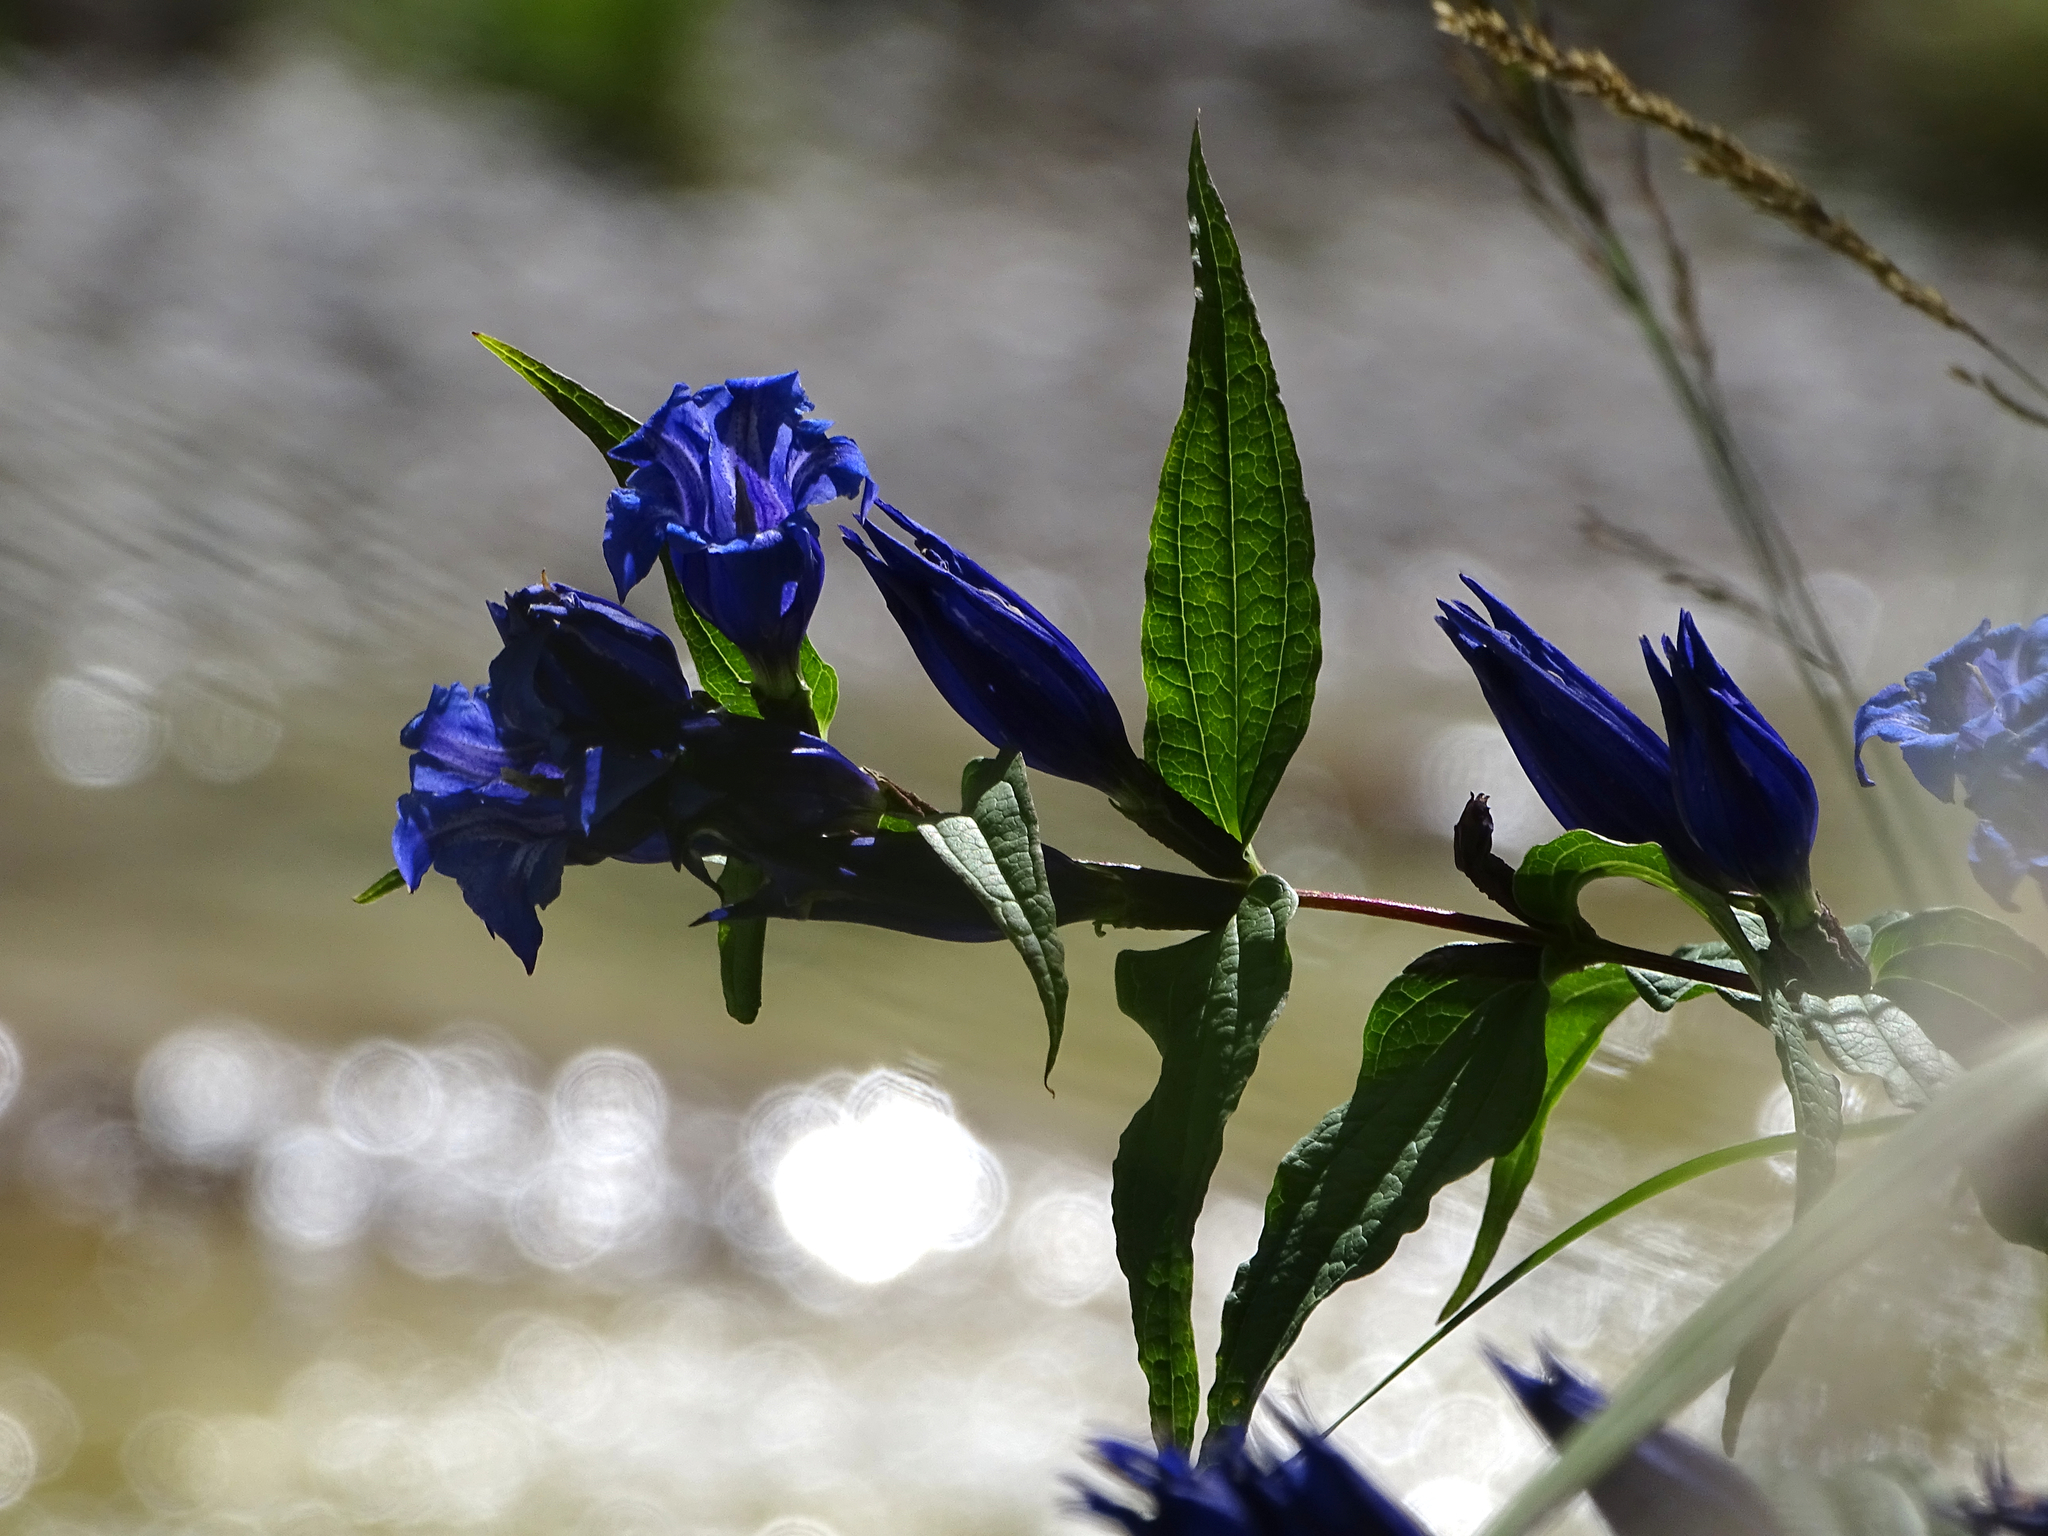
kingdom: Plantae
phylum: Tracheophyta
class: Magnoliopsida
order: Gentianales
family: Gentianaceae
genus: Gentiana
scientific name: Gentiana asclepiadea
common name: Willow gentian
